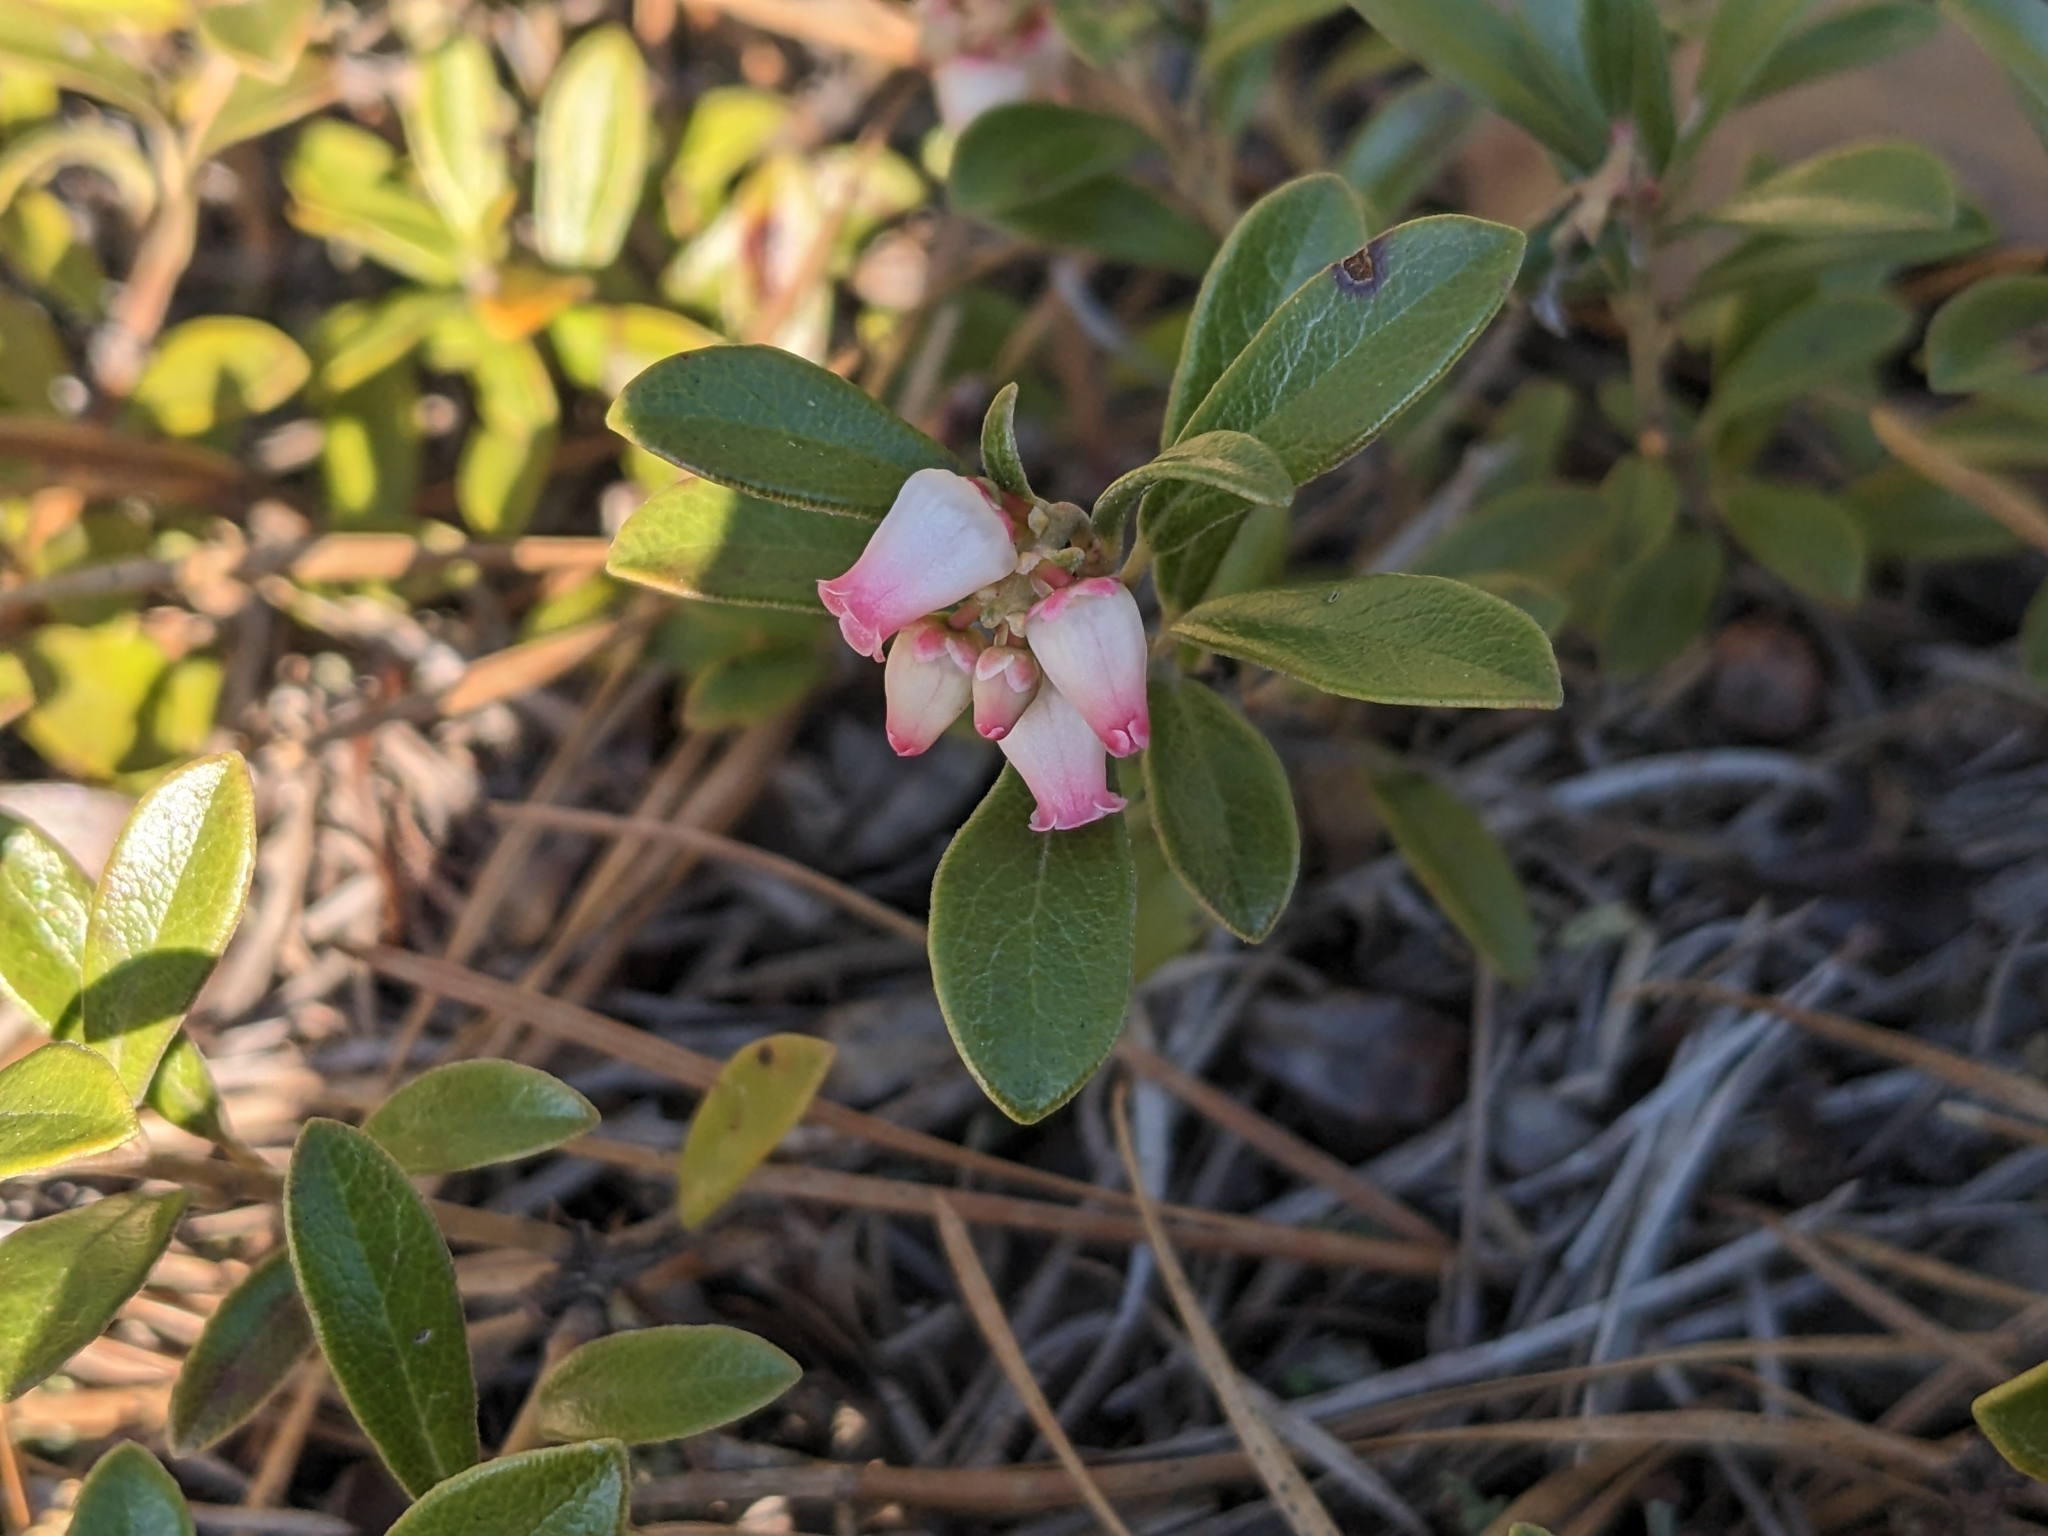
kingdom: Plantae
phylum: Tracheophyta
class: Magnoliopsida
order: Ericales
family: Ericaceae
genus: Arctostaphylos
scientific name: Arctostaphylos uva-ursi
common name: Bearberry
